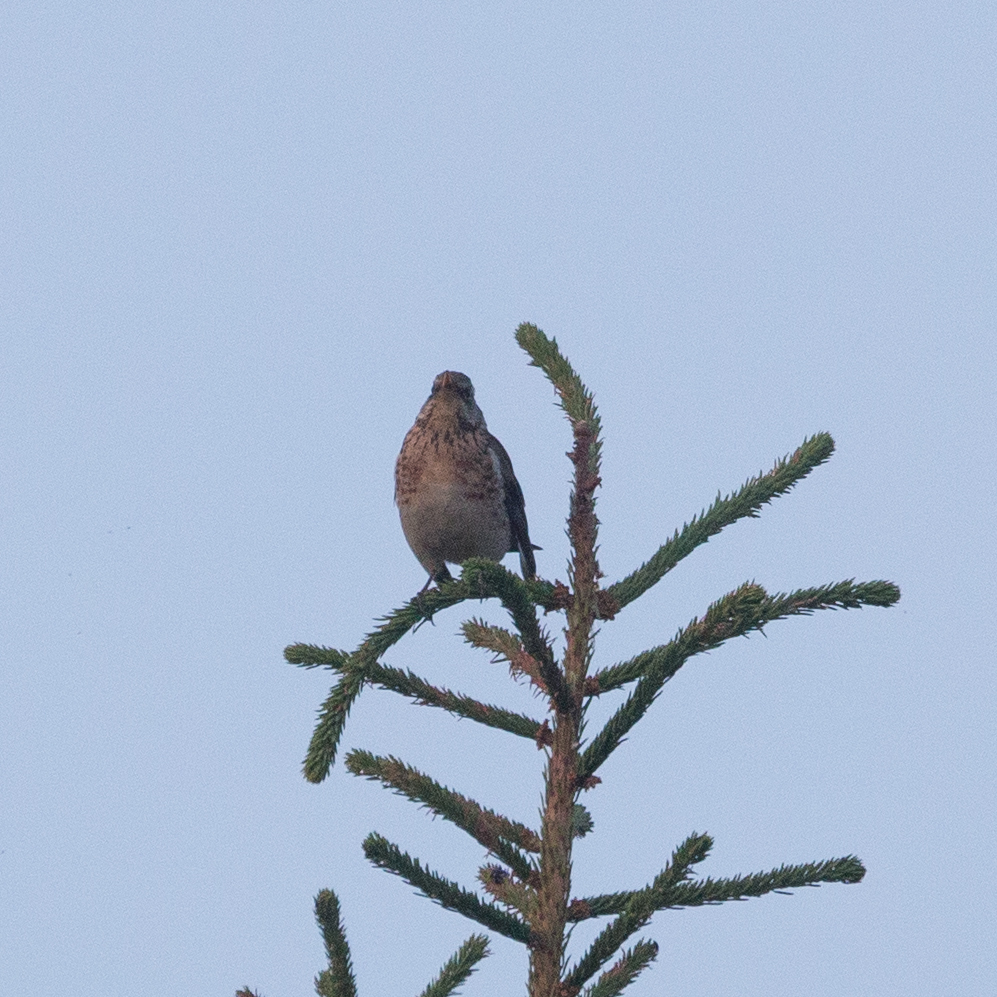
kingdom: Animalia
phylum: Chordata
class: Aves
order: Passeriformes
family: Turdidae
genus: Turdus
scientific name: Turdus pilaris
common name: Fieldfare
